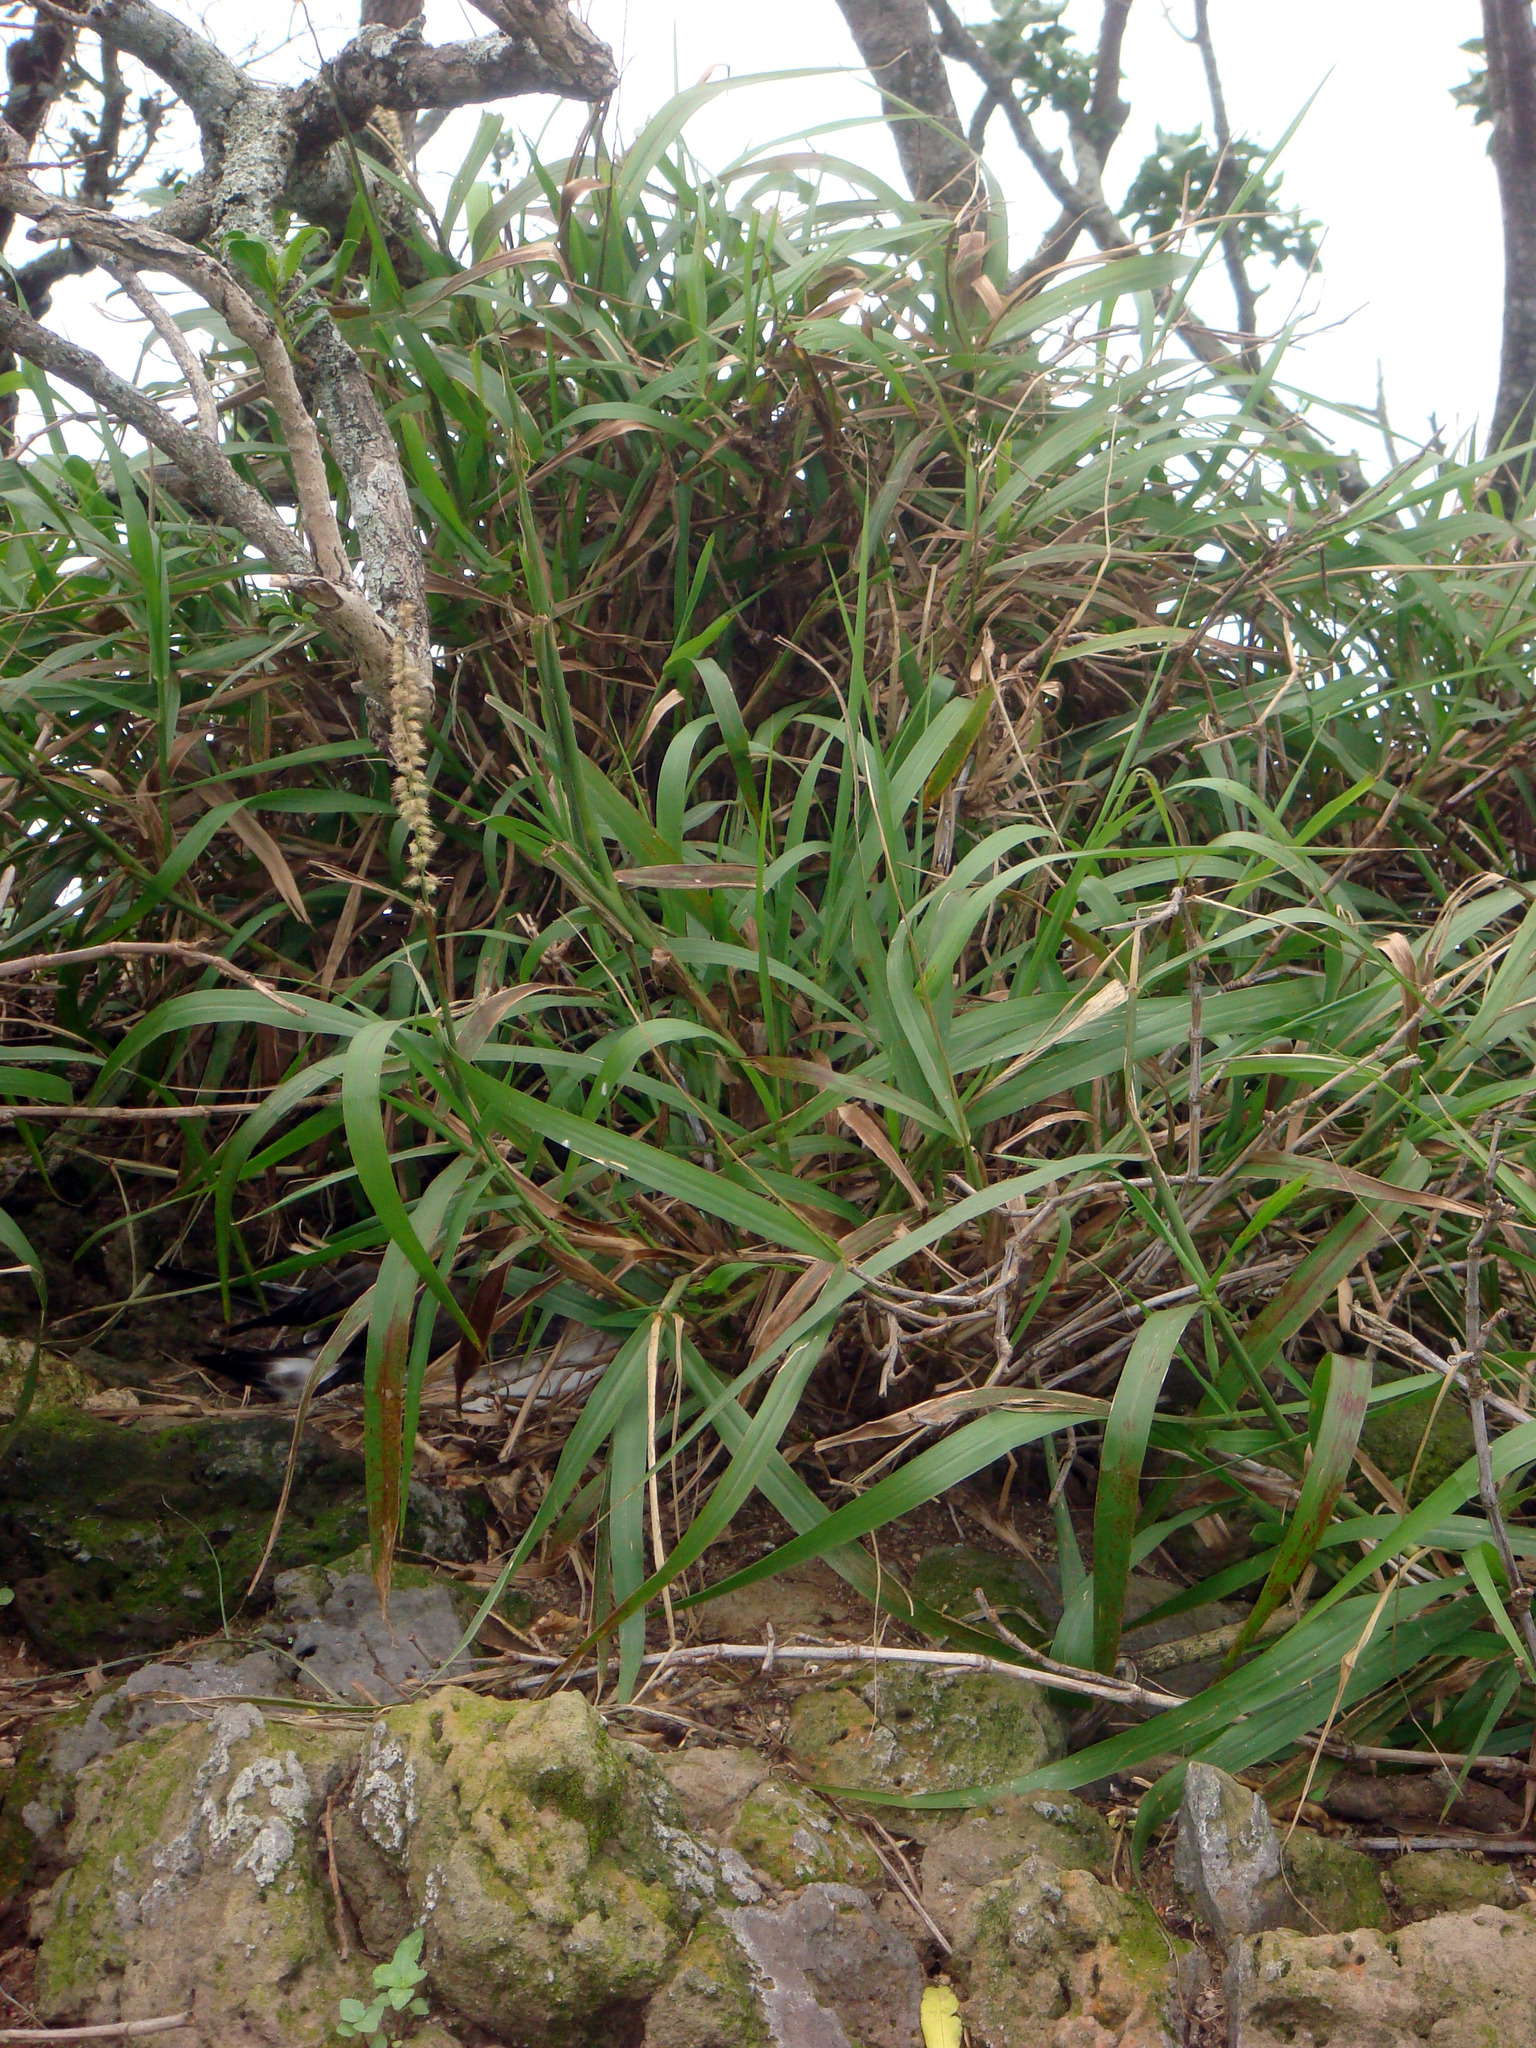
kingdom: Plantae
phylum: Tracheophyta
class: Liliopsida
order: Poales
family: Poaceae
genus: Cenchrus
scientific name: Cenchrus caliculatus
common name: Large bur grass
